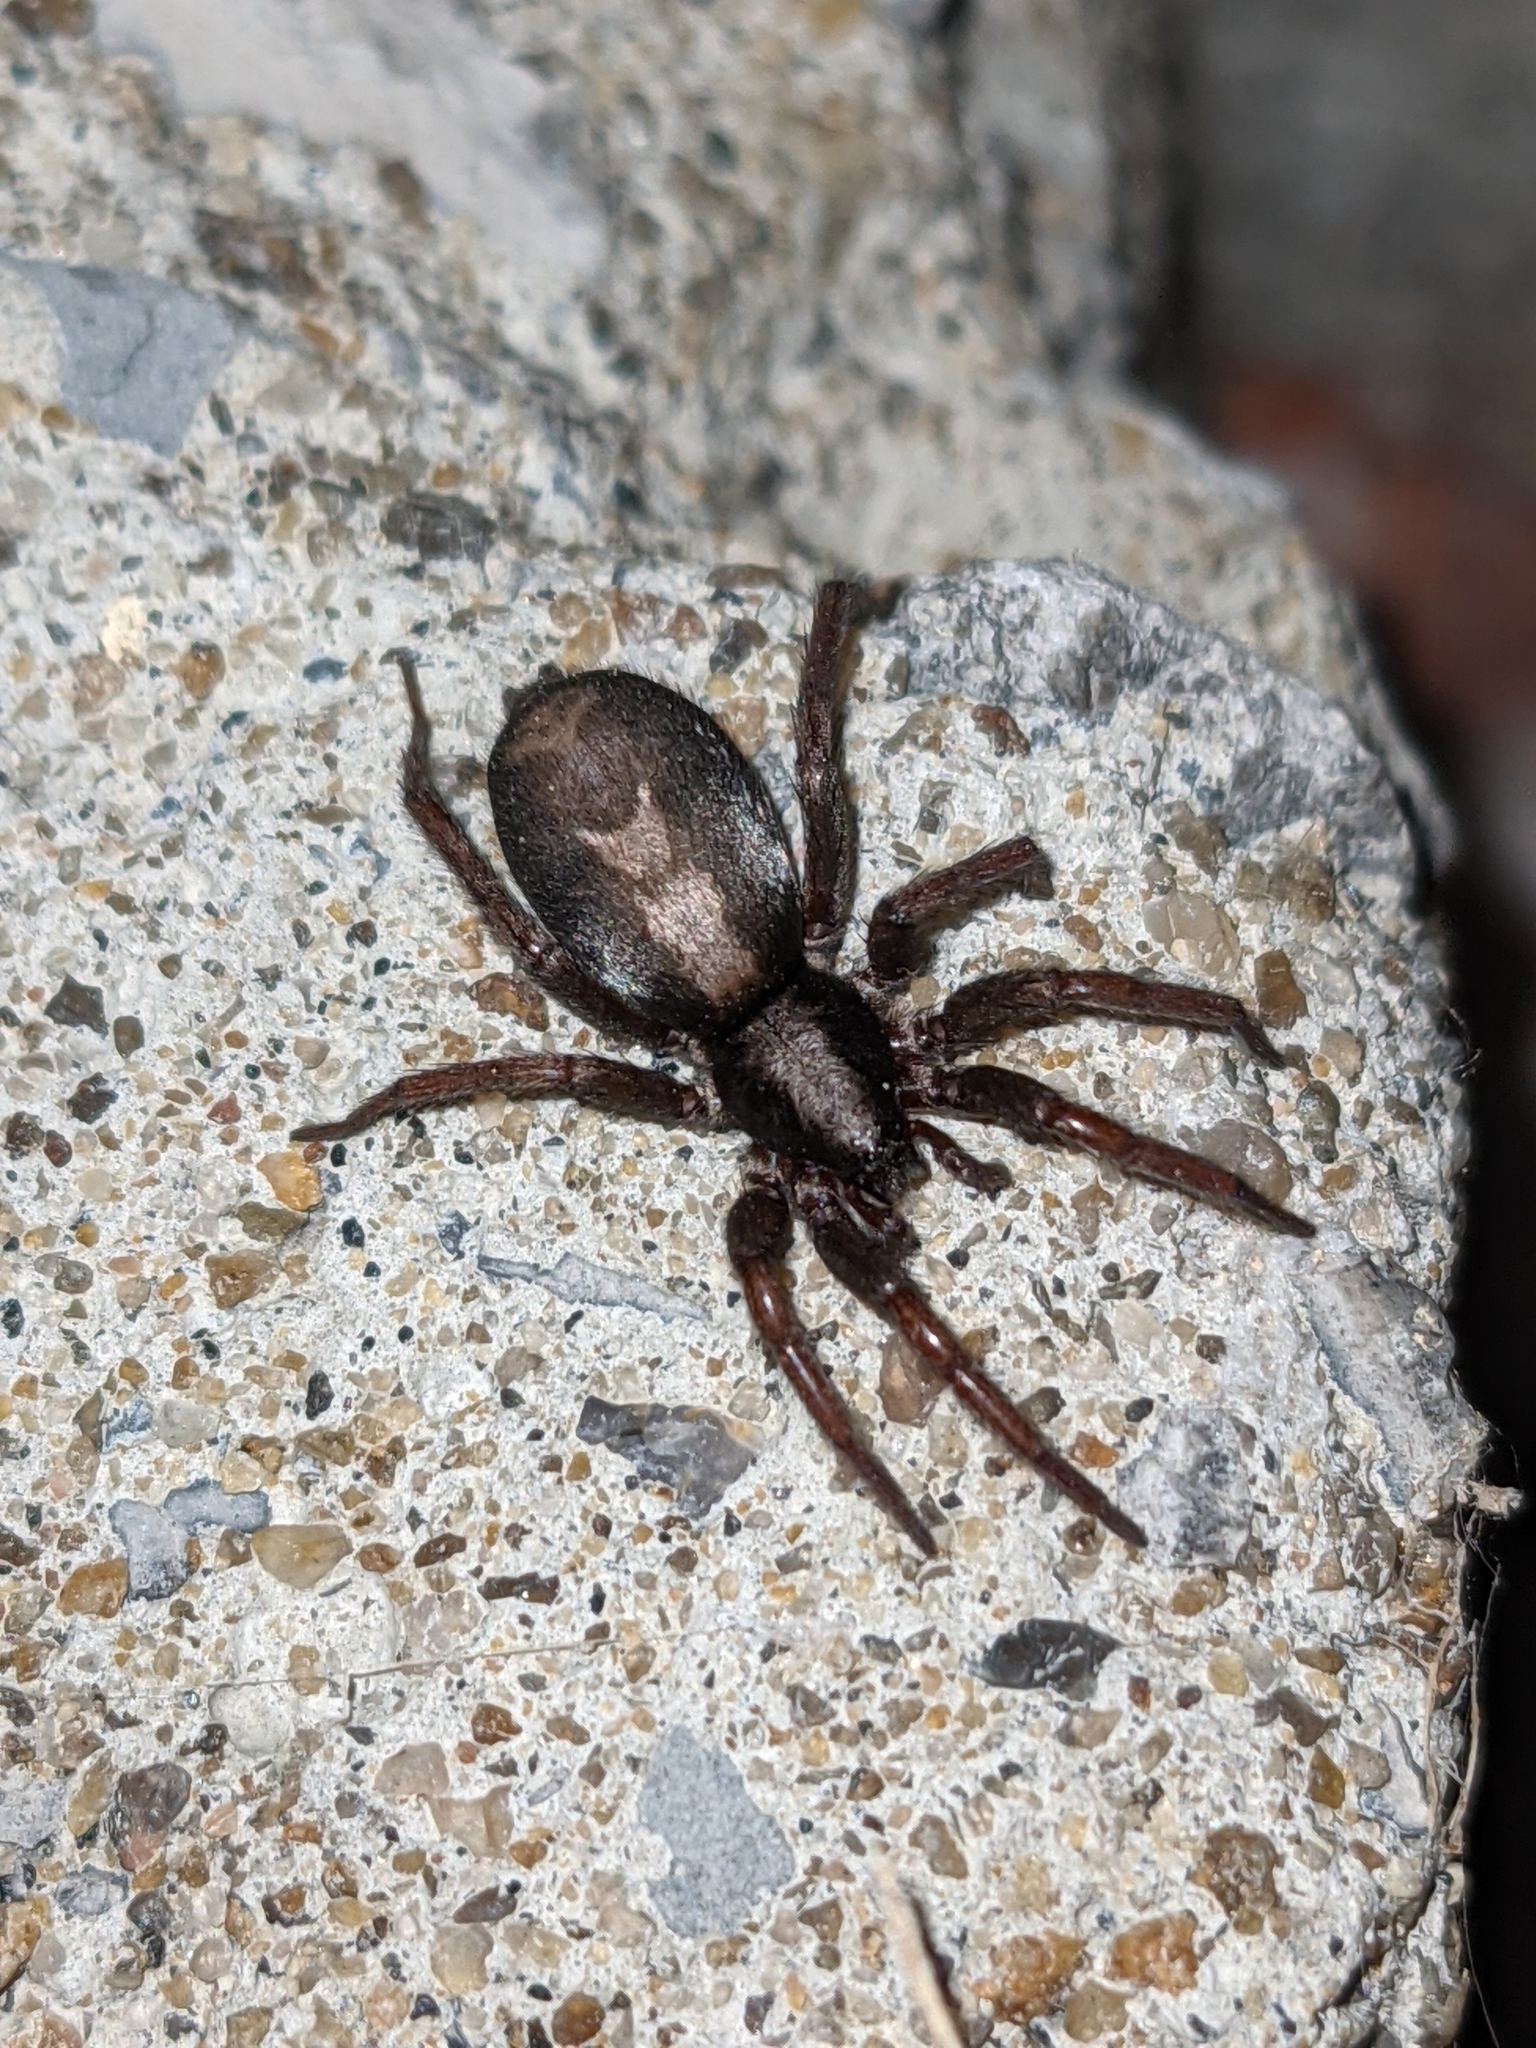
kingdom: Animalia
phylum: Arthropoda
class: Arachnida
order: Araneae
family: Gnaphosidae
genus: Herpyllus
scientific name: Herpyllus ecclesiasticus
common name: Eastern parson spider
